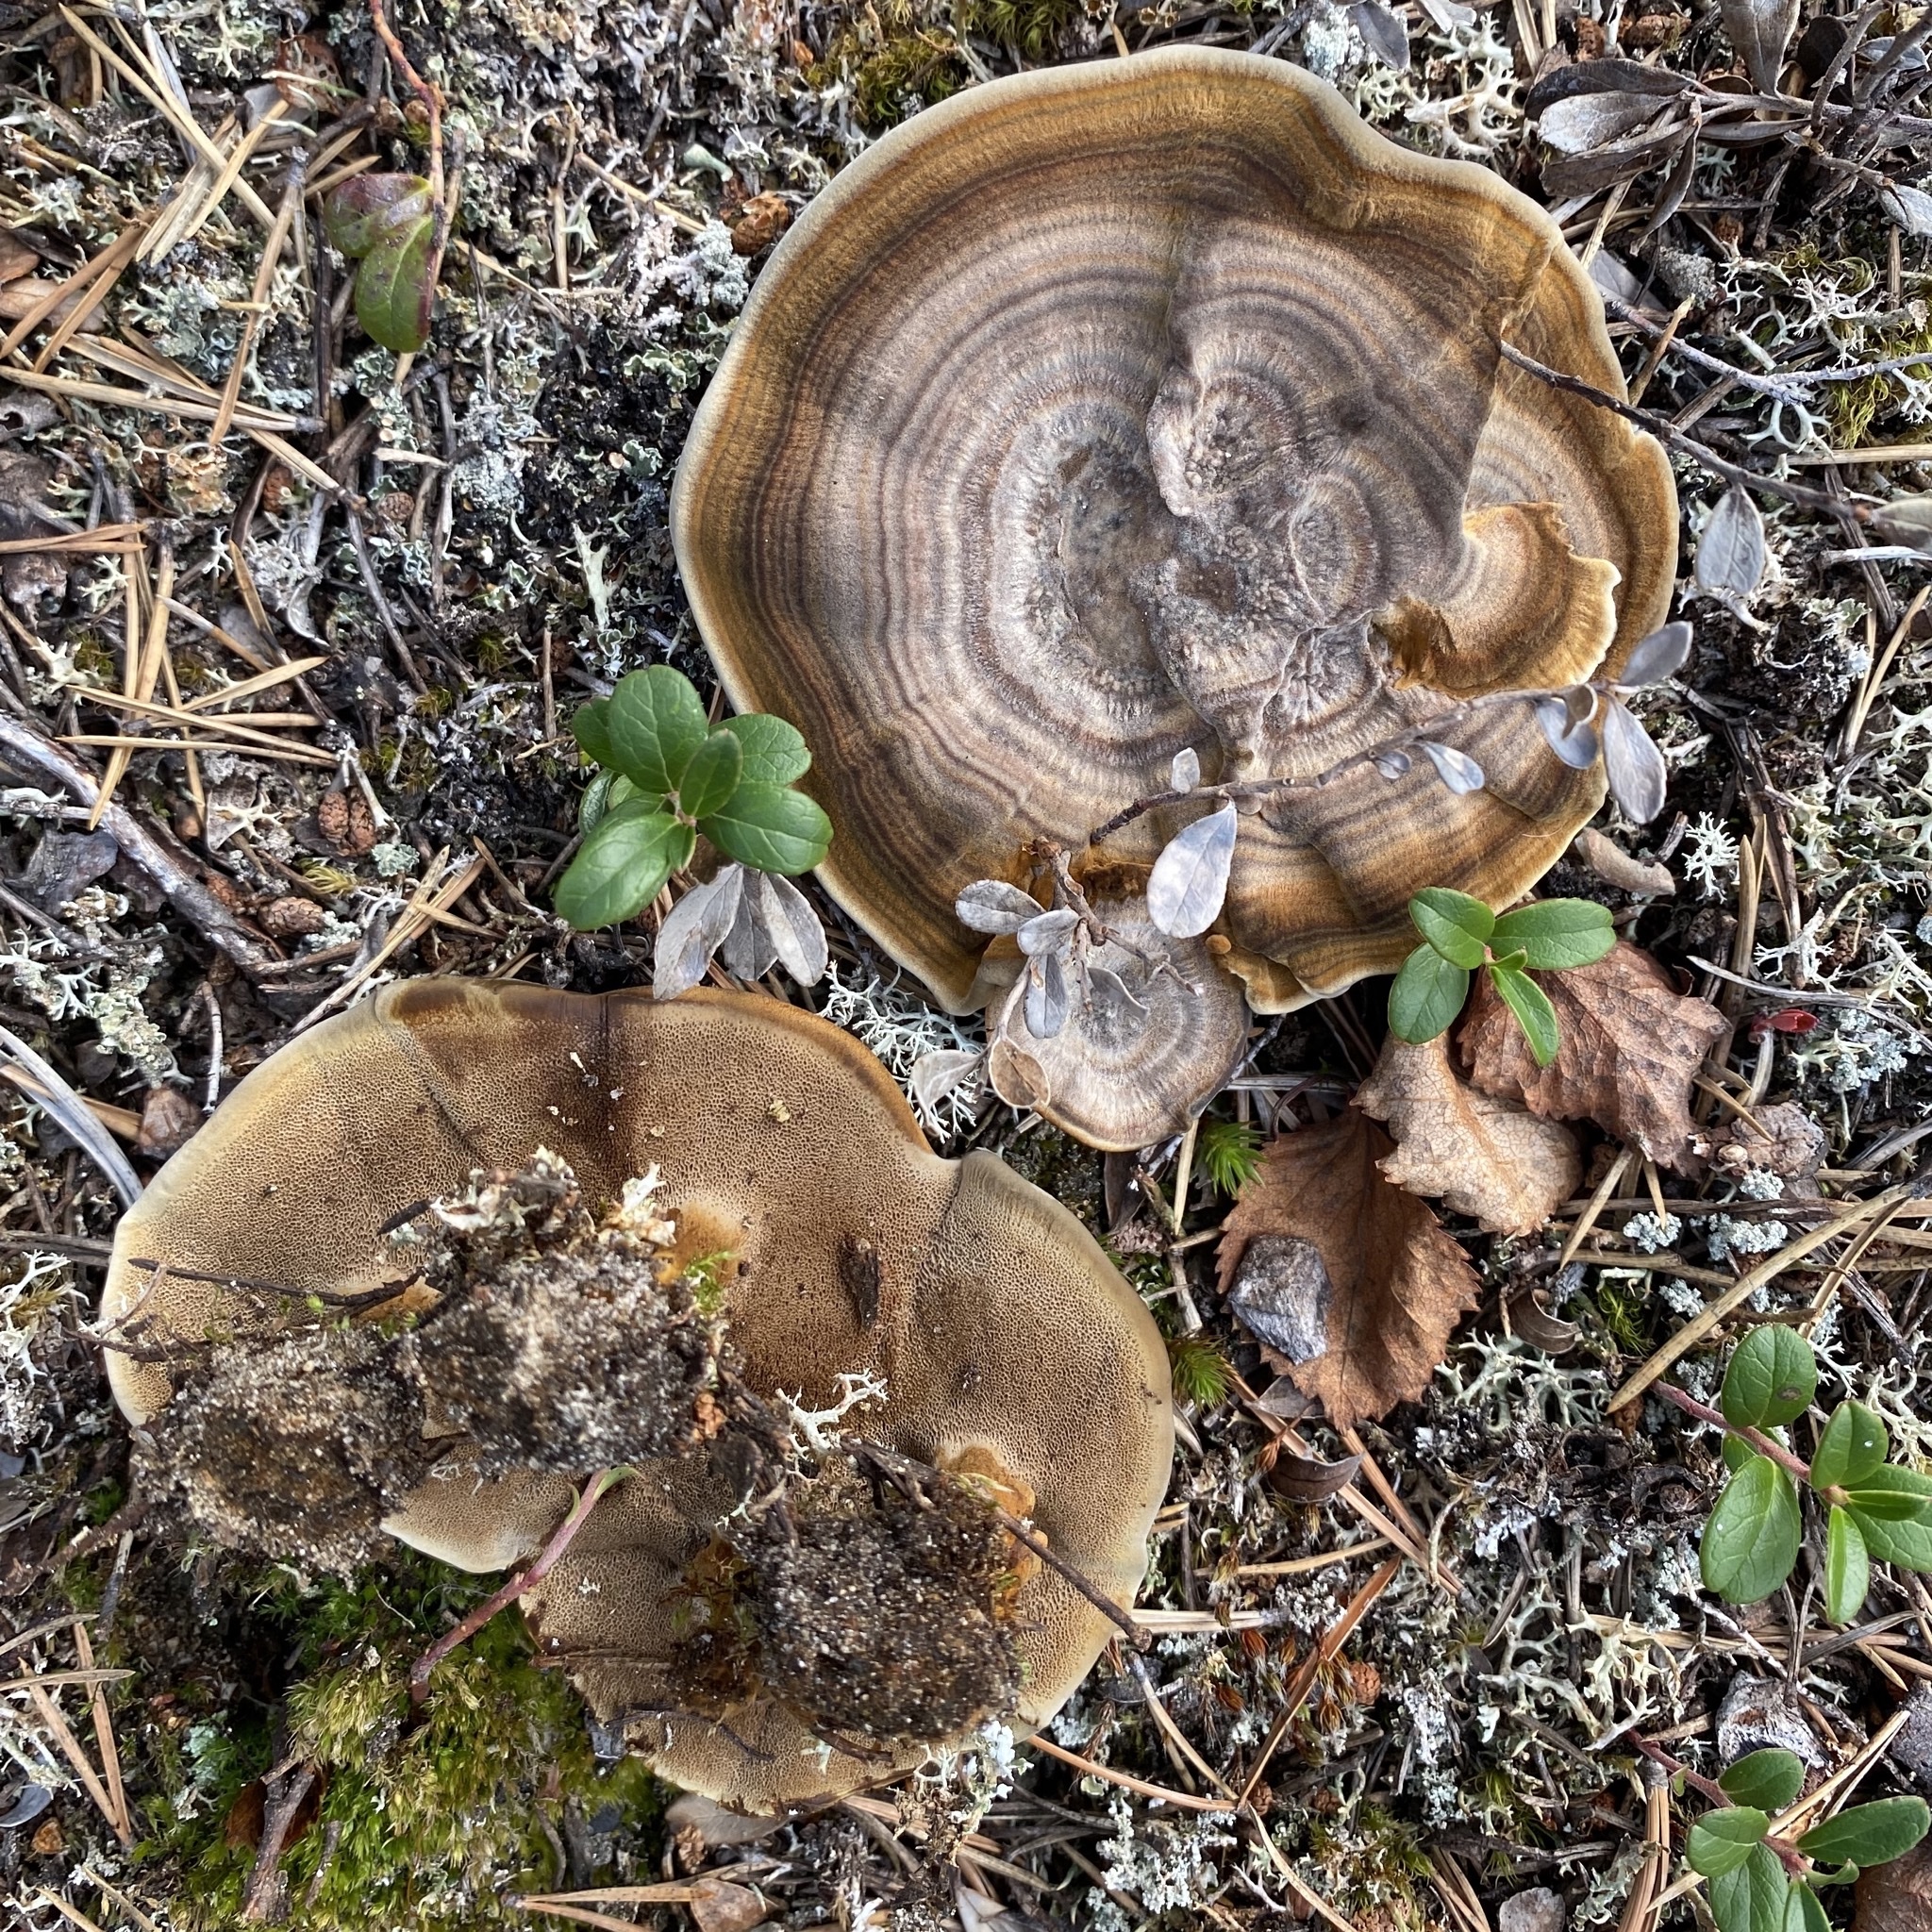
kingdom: Fungi
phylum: Basidiomycota
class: Agaricomycetes
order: Hymenochaetales
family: Hymenochaetaceae
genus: Coltricia
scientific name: Coltricia perennis
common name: Tiger's eye
